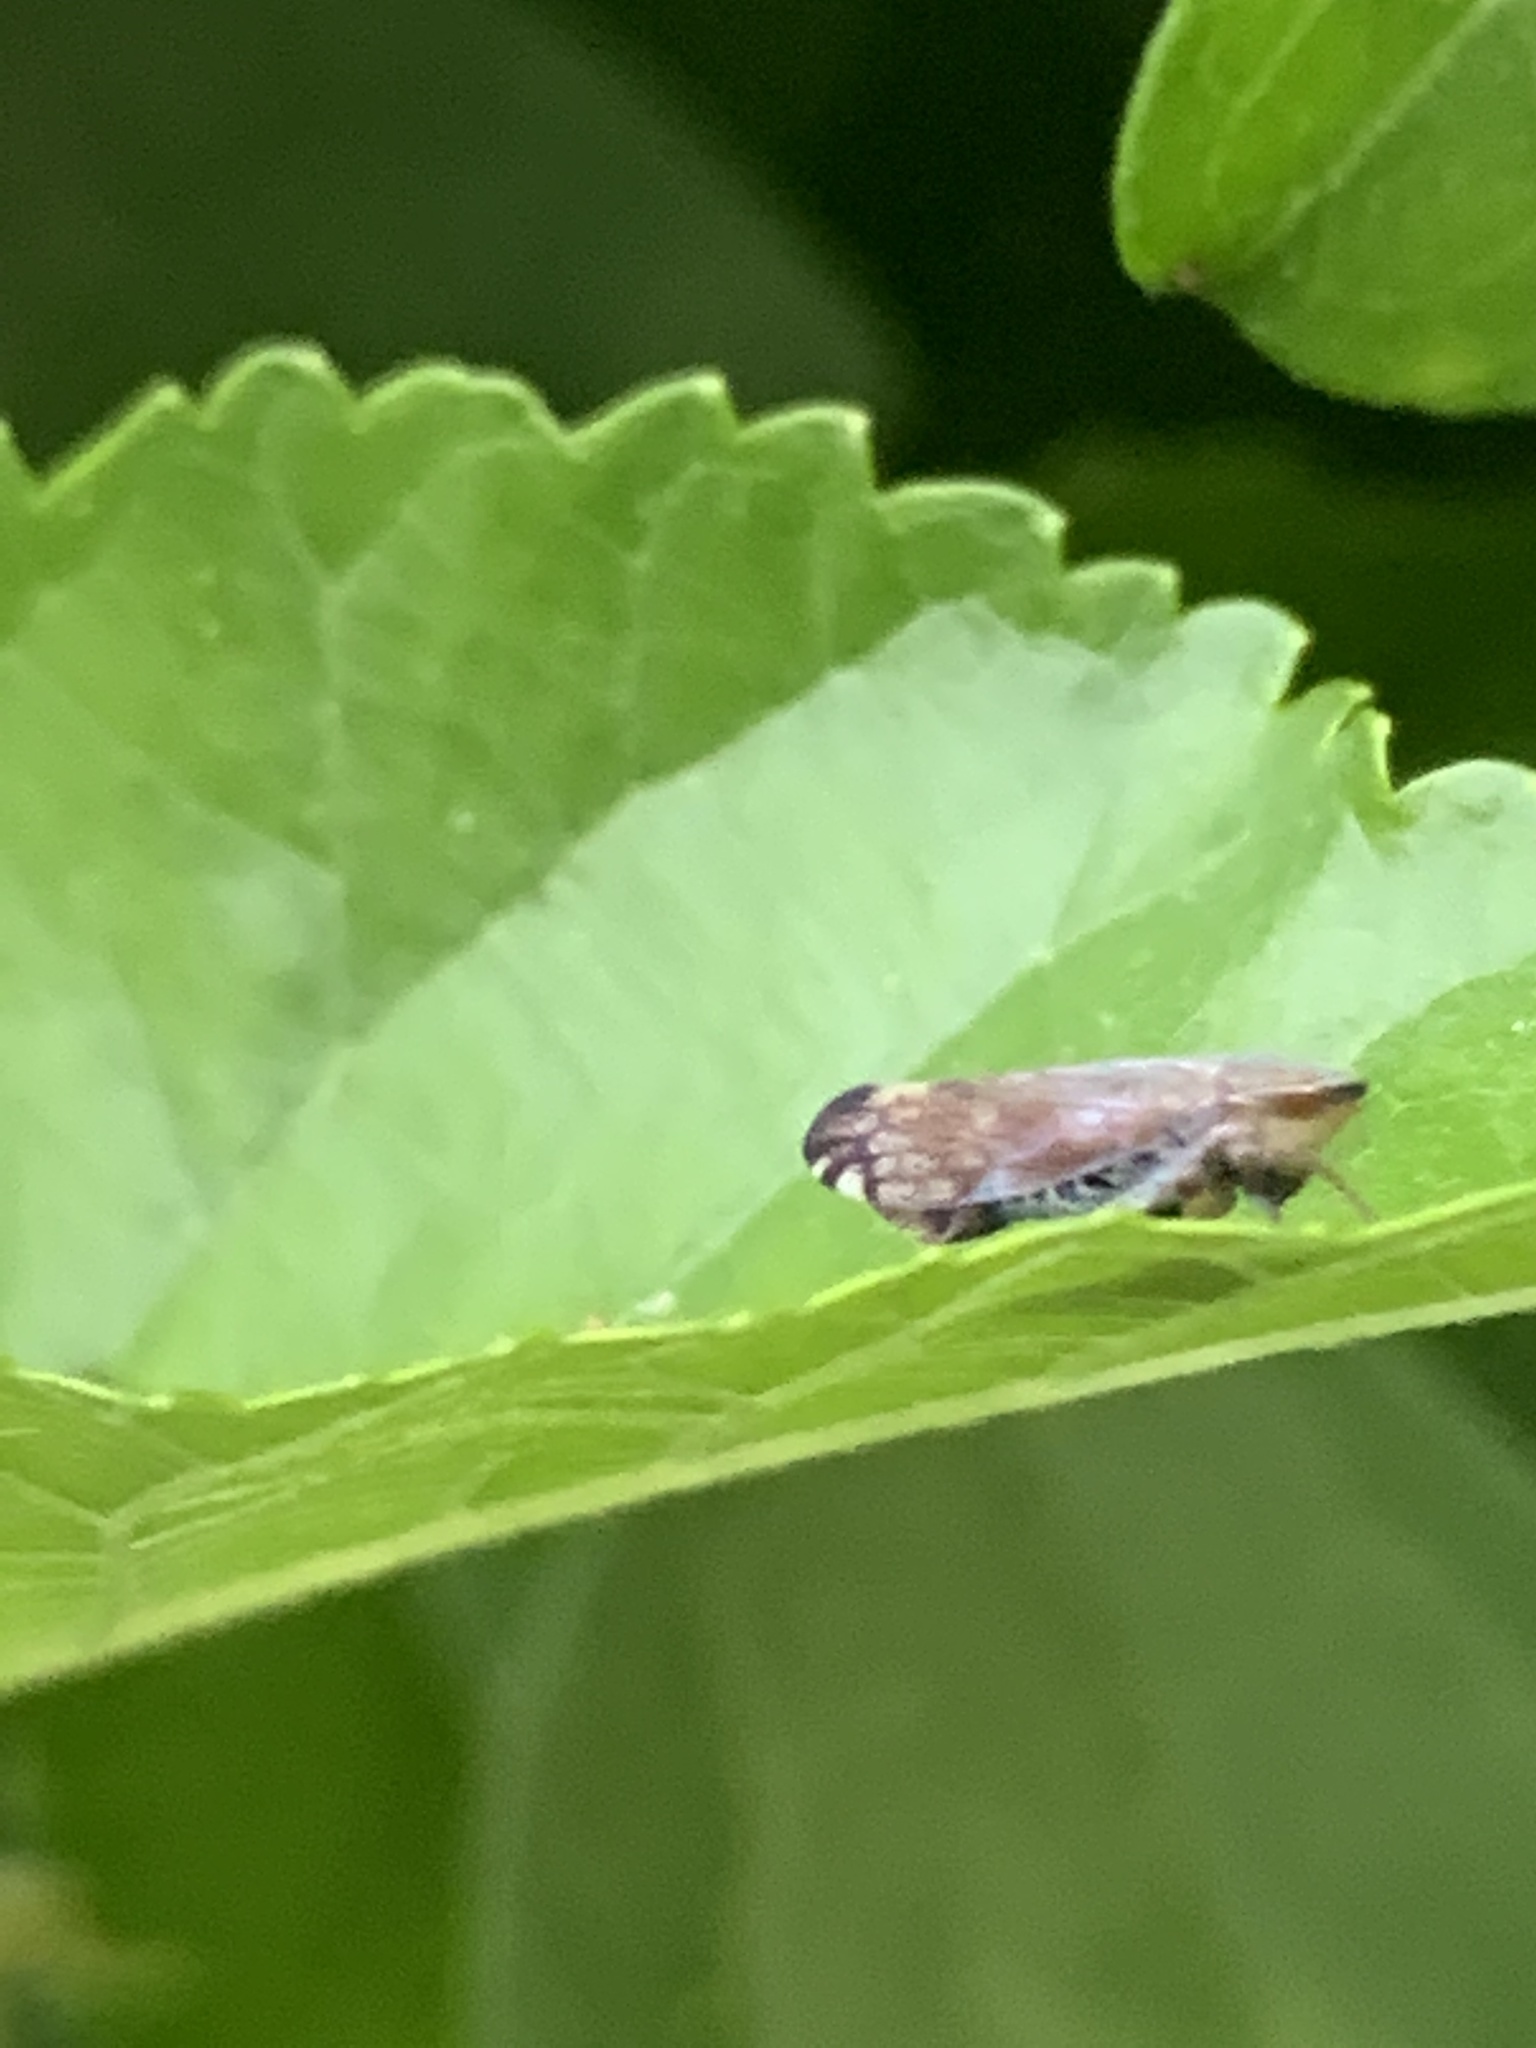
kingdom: Animalia
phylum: Arthropoda
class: Insecta
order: Hemiptera
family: Cicadellidae
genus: Fieberiella
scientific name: Fieberiella florii
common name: Flor’s leafhopper
